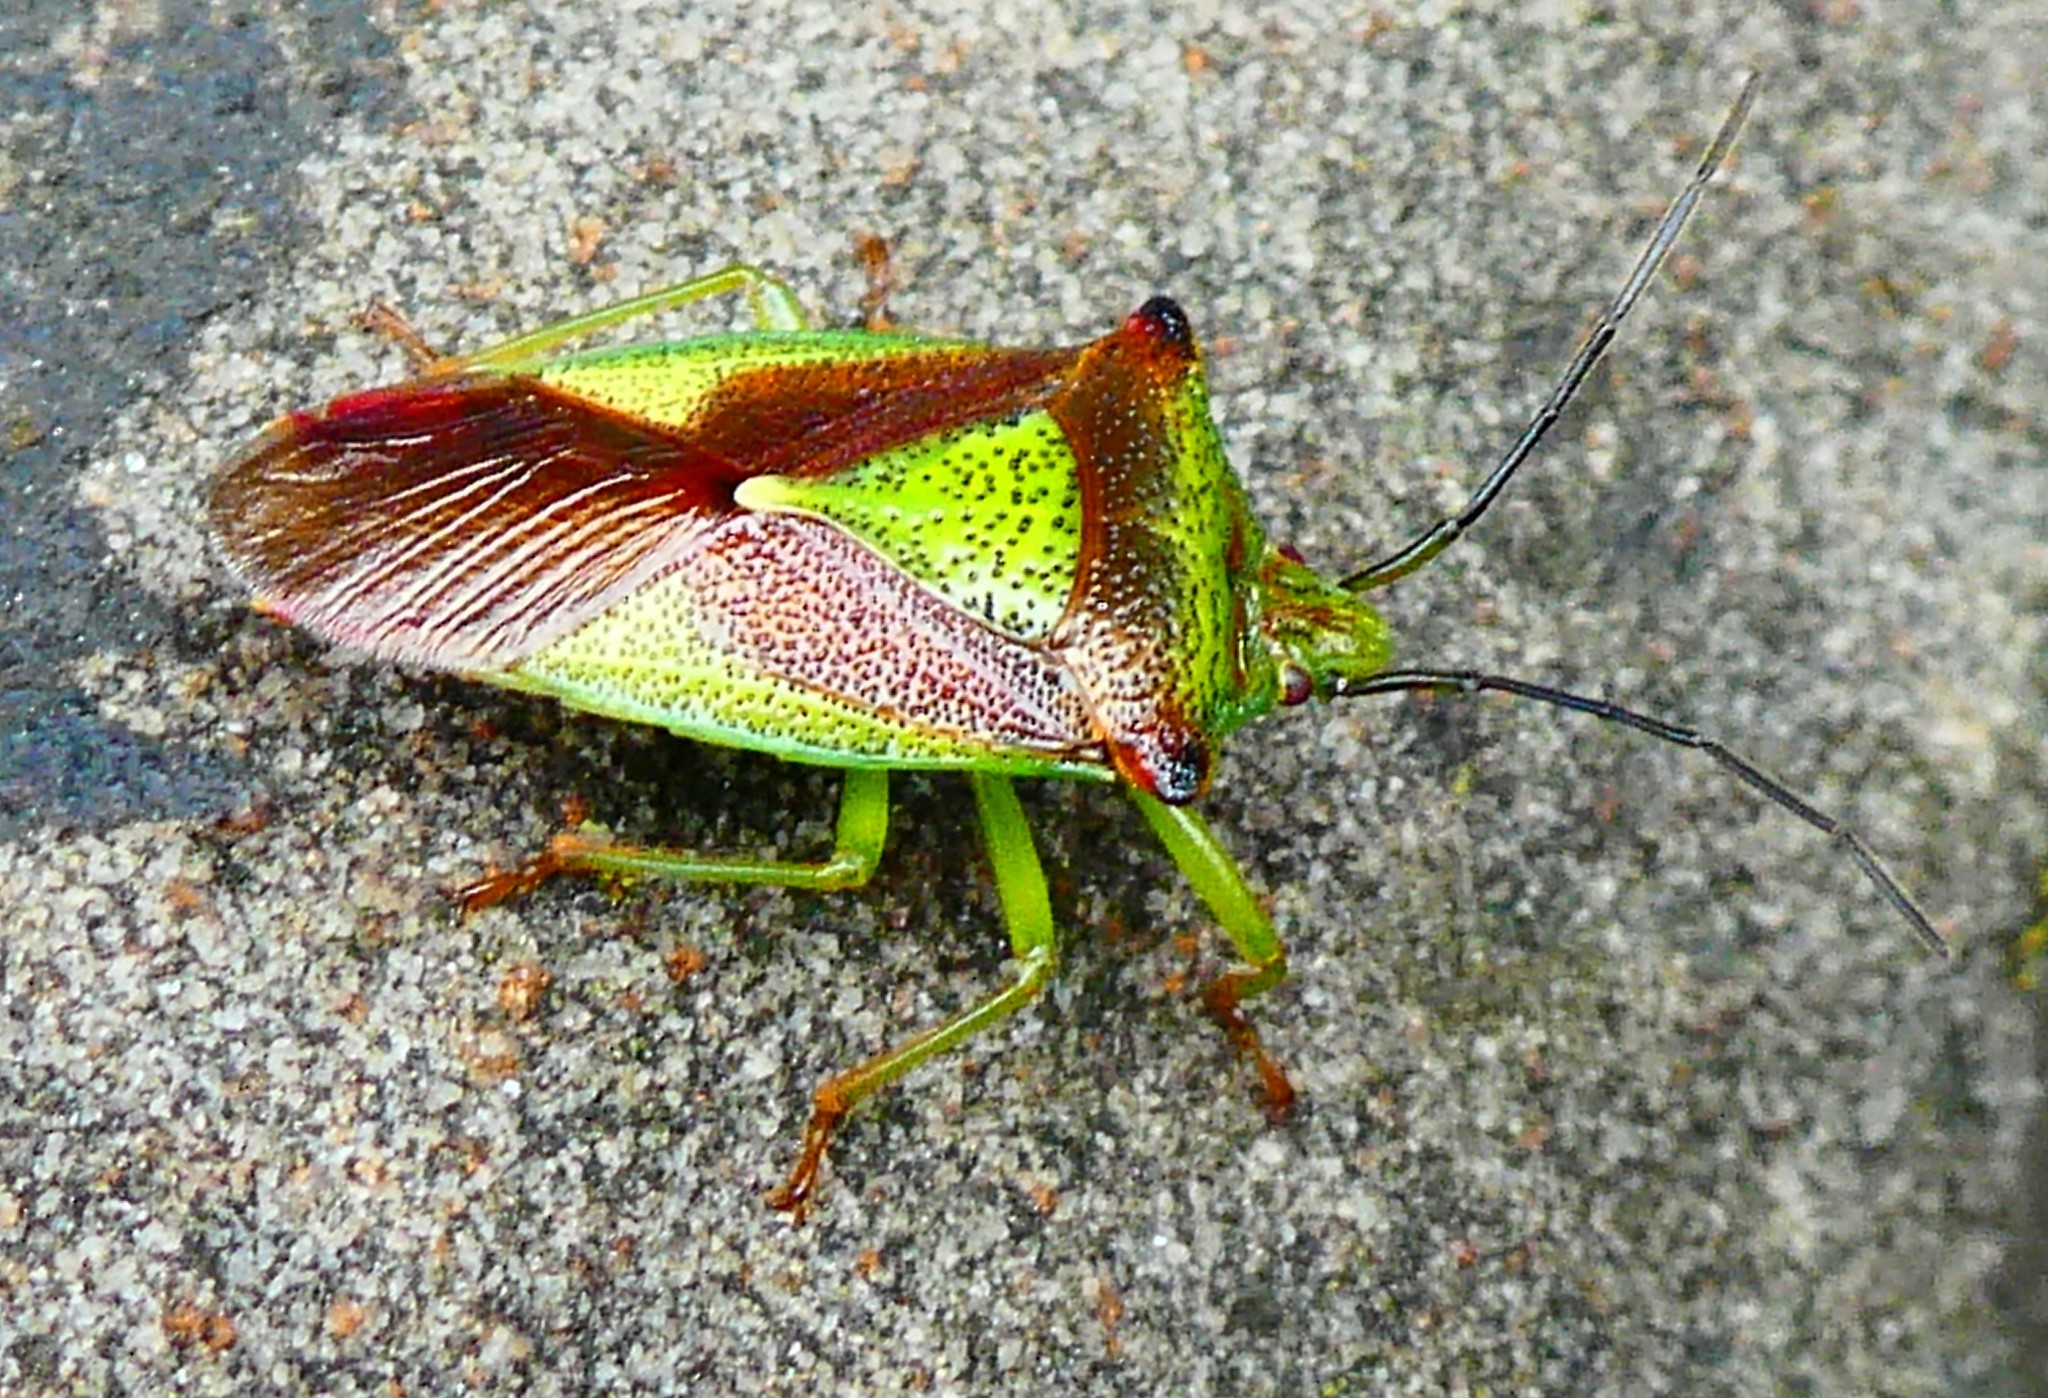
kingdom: Animalia
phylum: Arthropoda
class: Insecta
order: Hemiptera
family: Acanthosomatidae
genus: Acanthosoma
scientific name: Acanthosoma haemorrhoidale
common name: Hawthorn shieldbug
